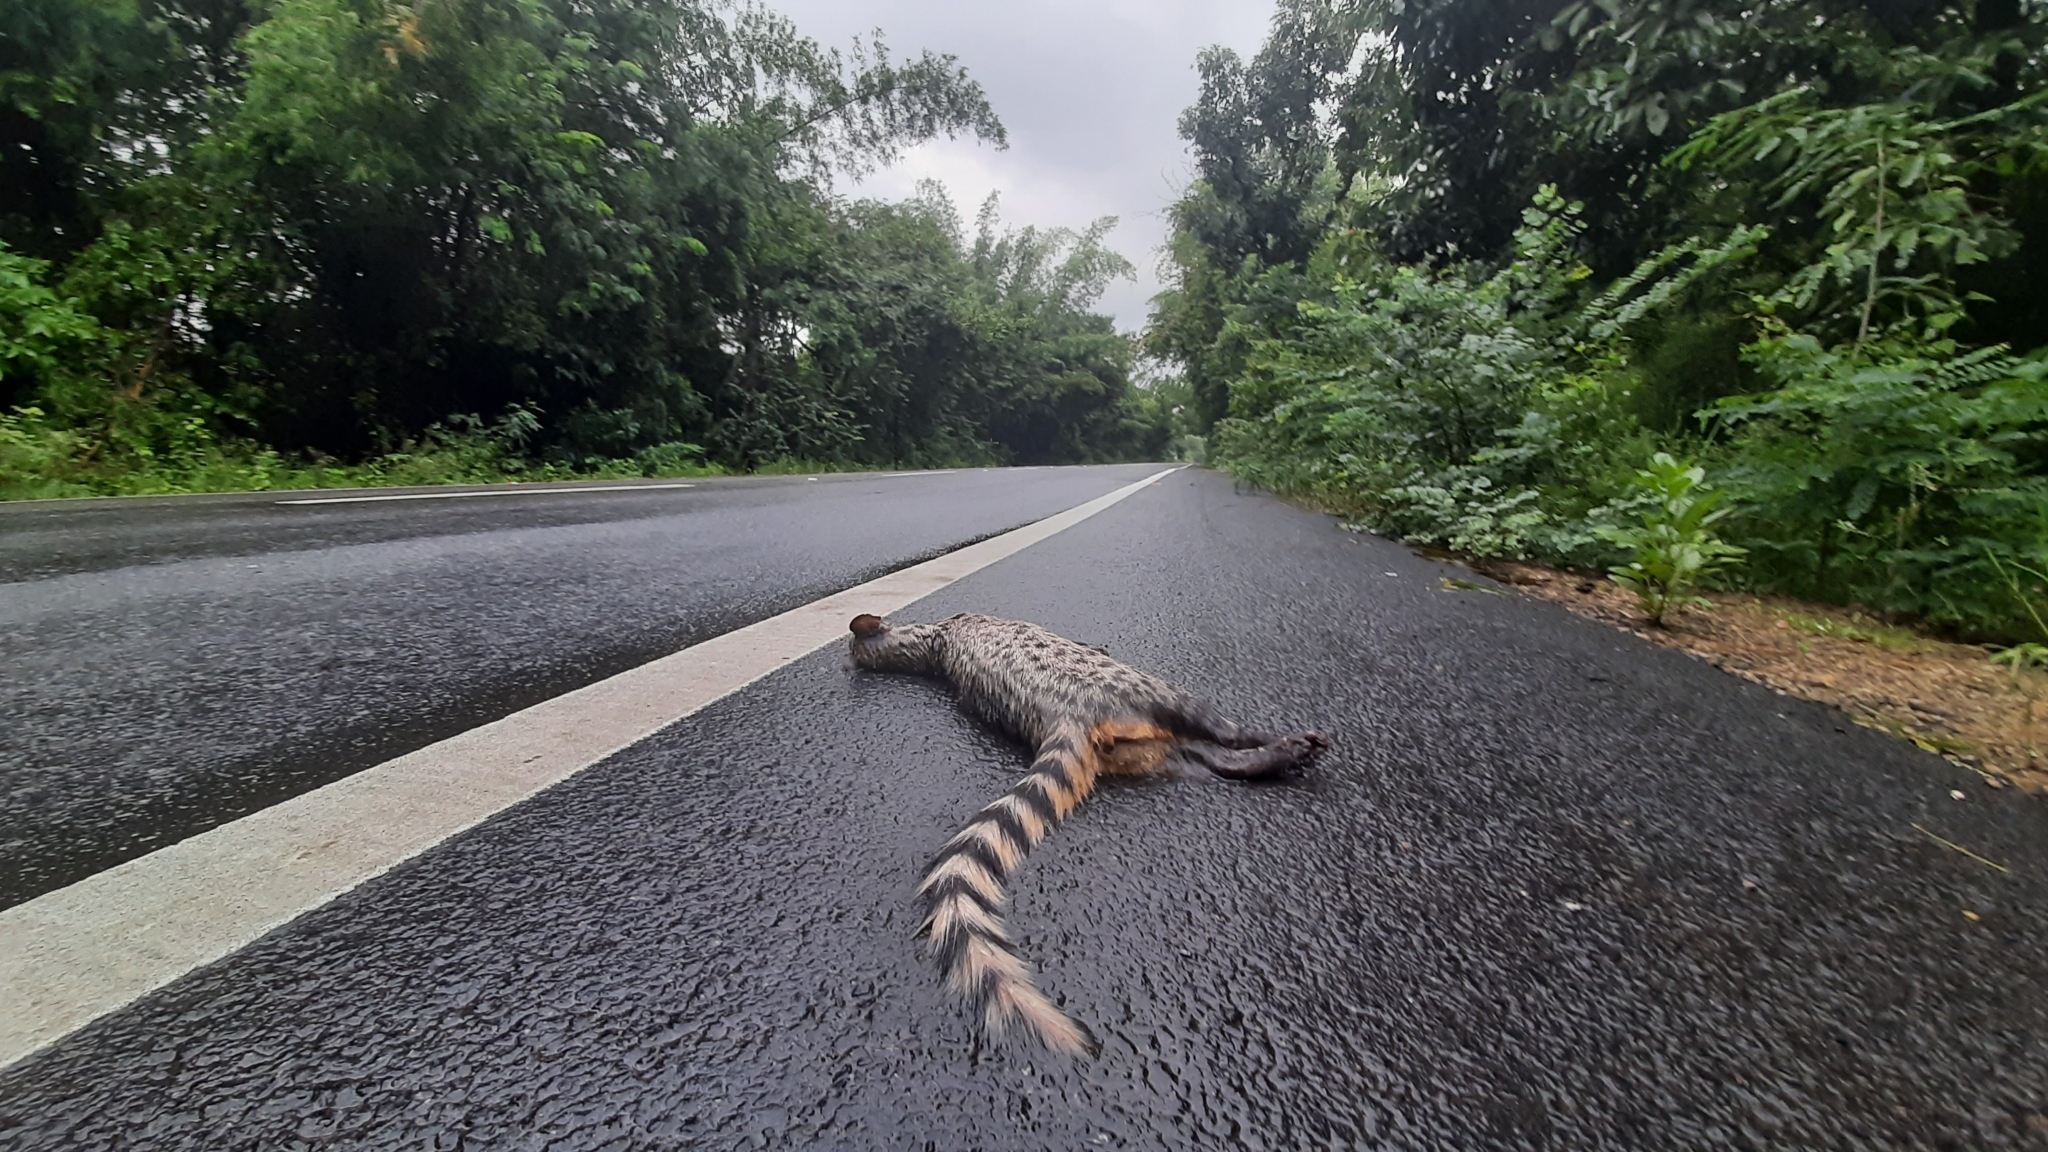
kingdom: Animalia
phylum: Chordata
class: Mammalia
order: Carnivora
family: Viverridae
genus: Viverricula
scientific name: Viverricula indica
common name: Small indian civet
